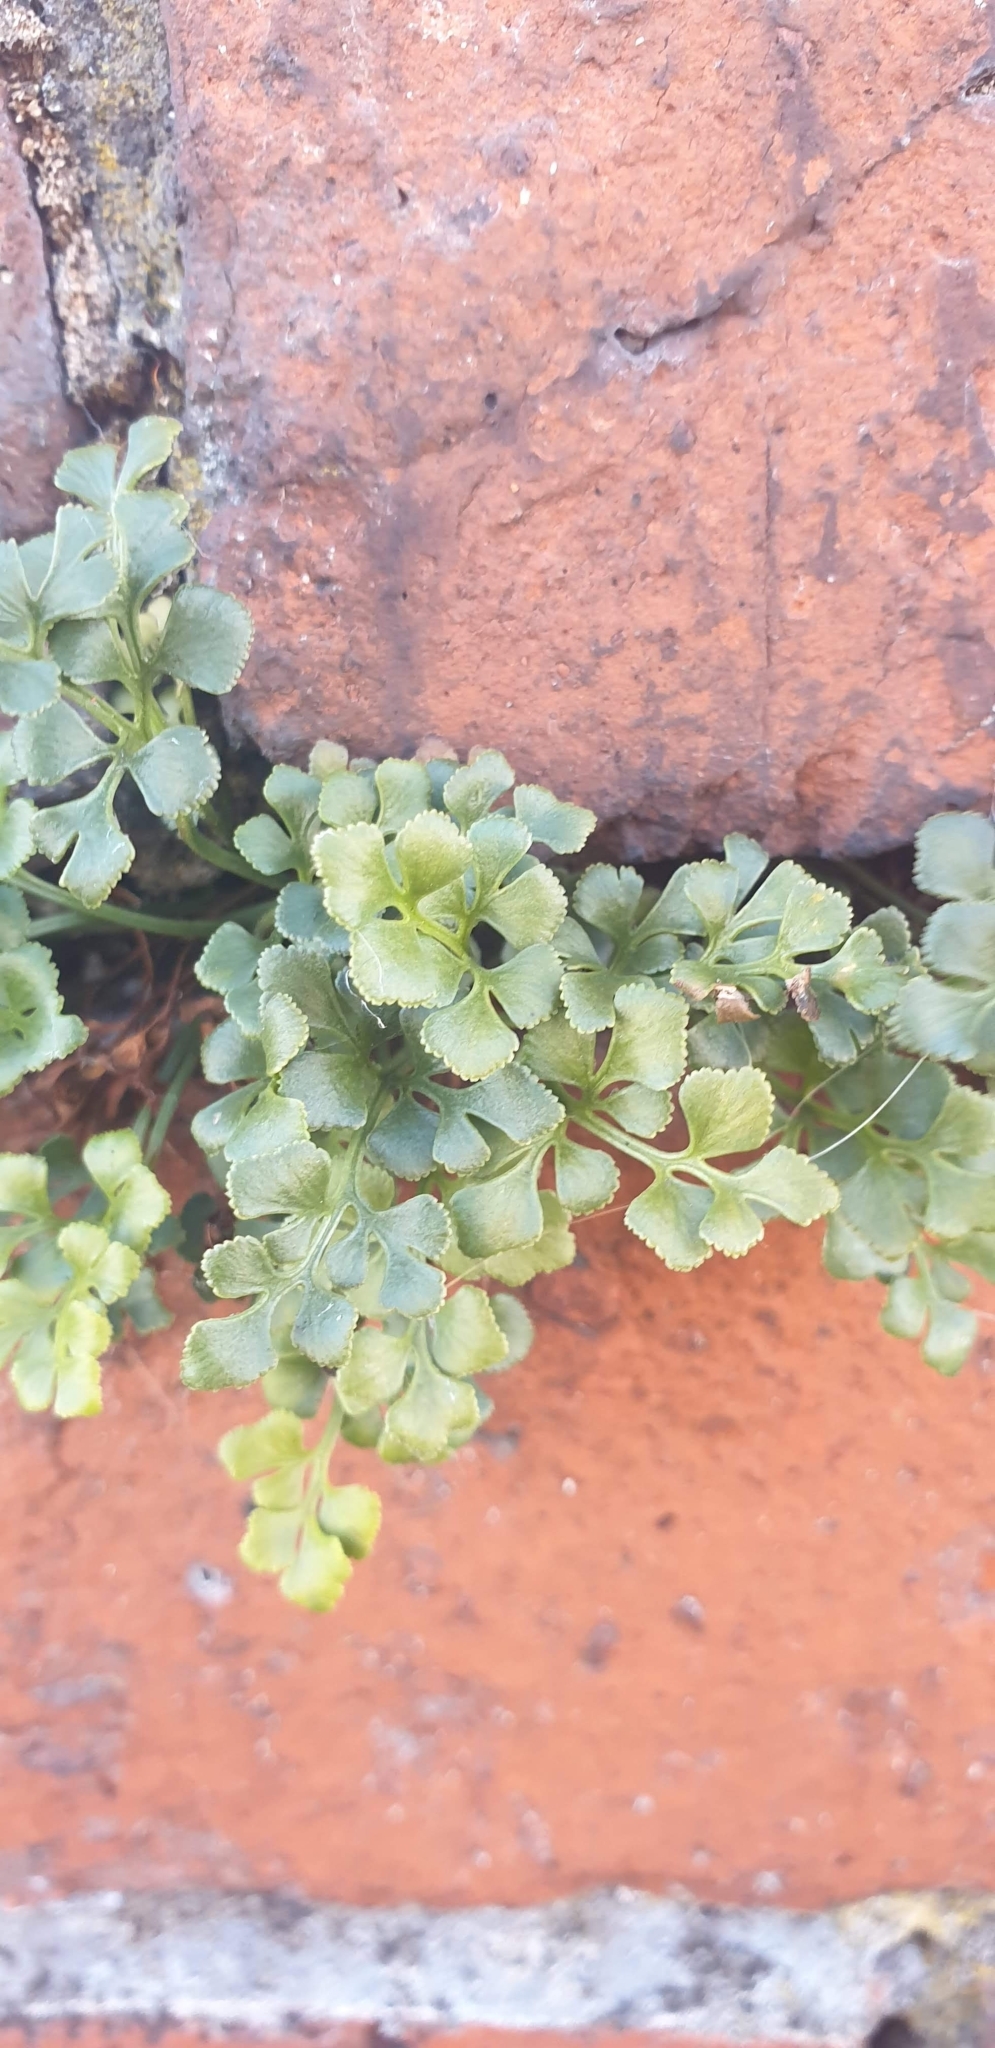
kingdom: Plantae
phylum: Tracheophyta
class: Polypodiopsida
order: Polypodiales
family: Aspleniaceae
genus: Asplenium
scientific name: Asplenium ruta-muraria
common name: Wall-rue
